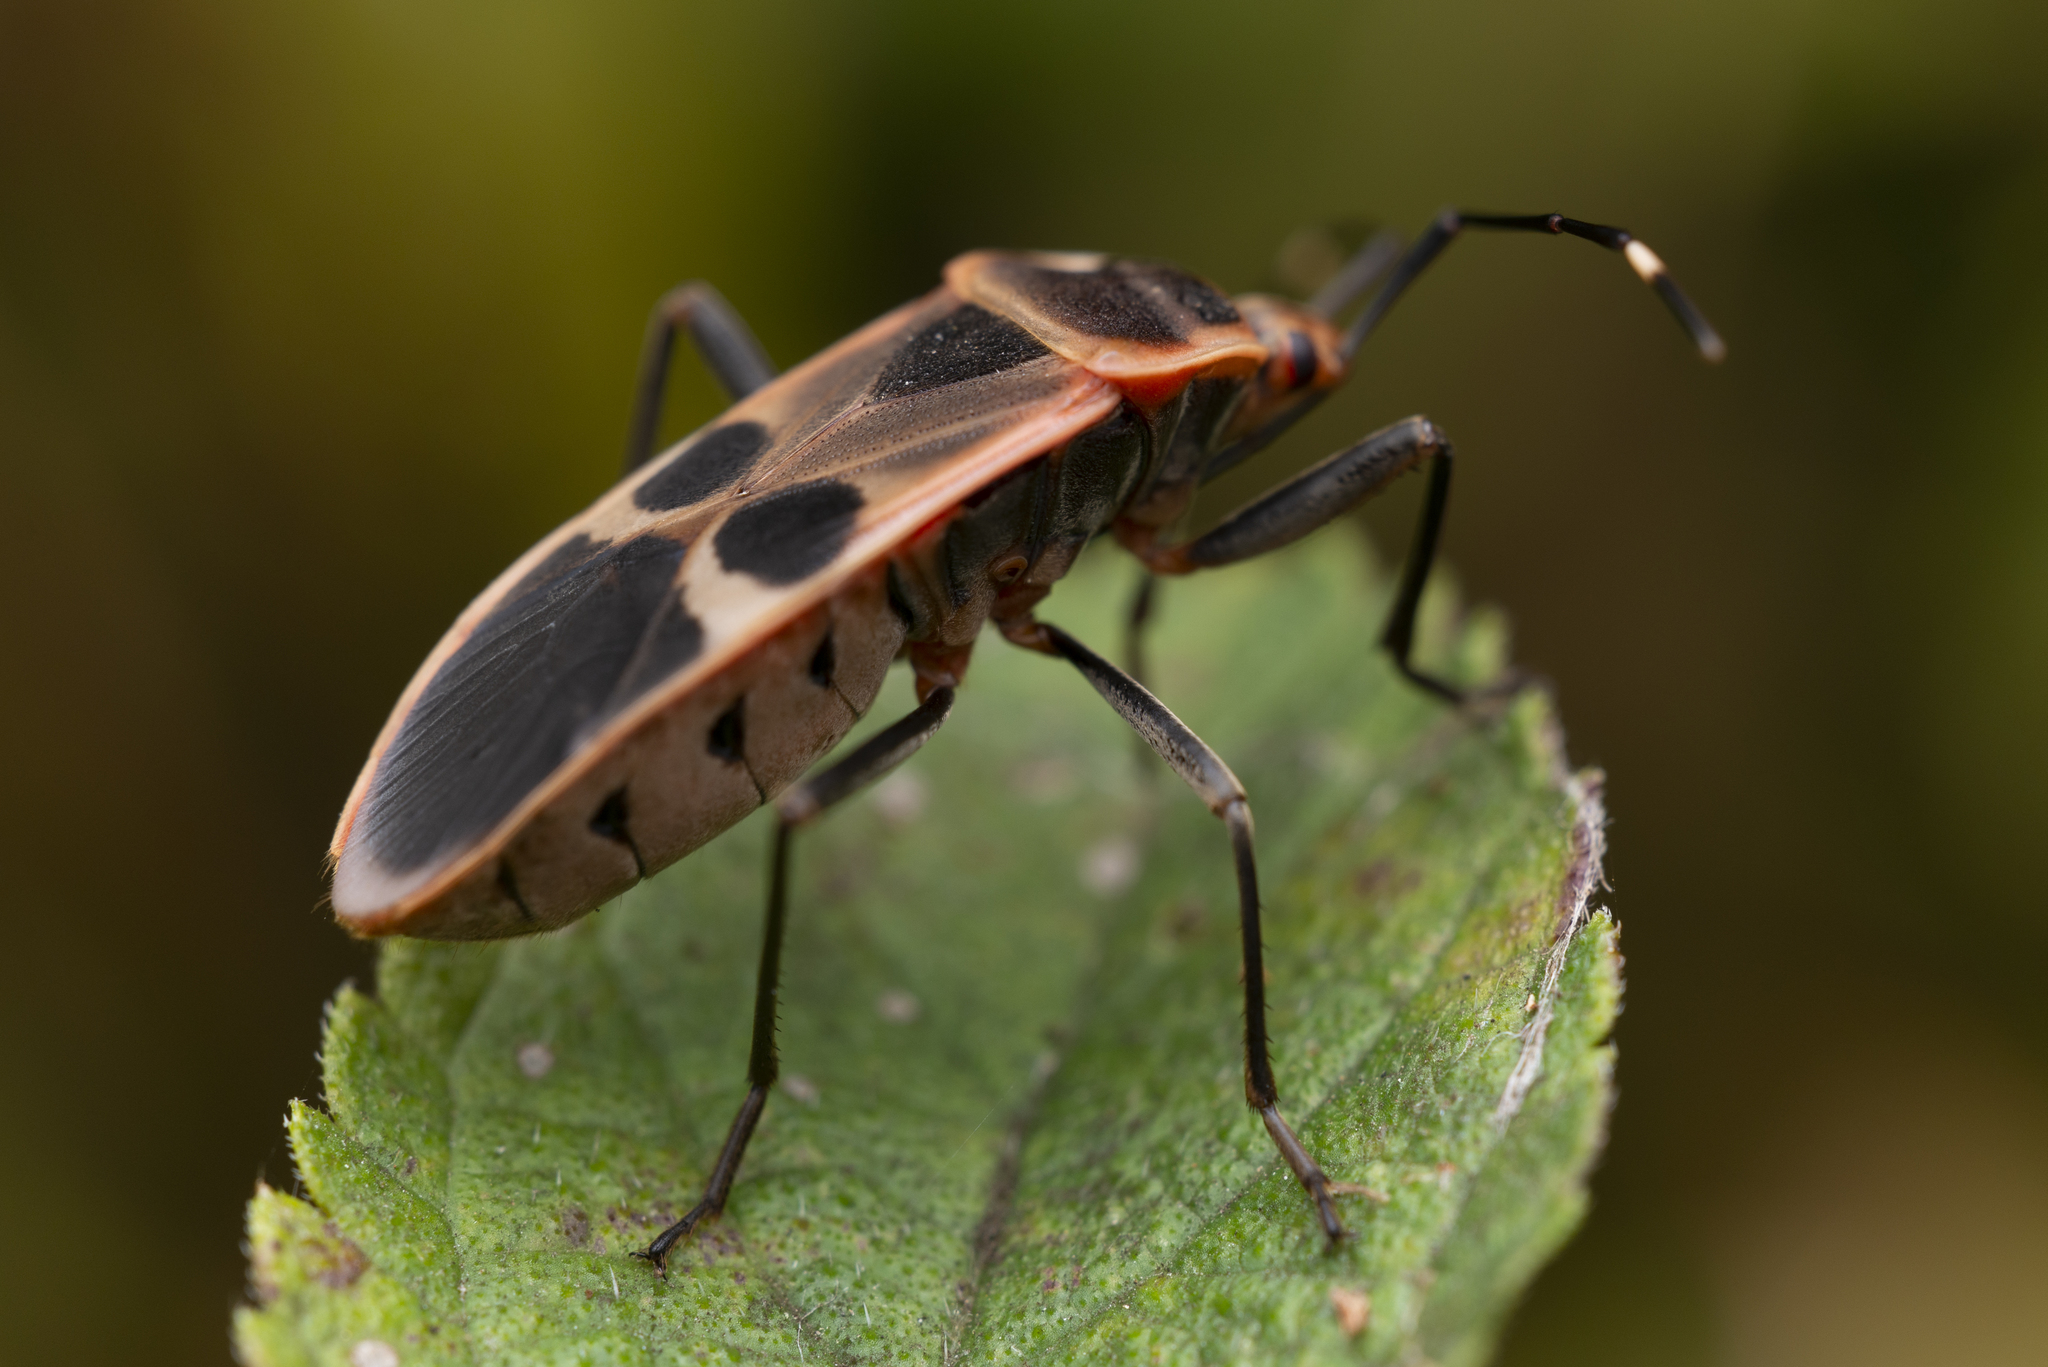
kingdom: Animalia
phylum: Arthropoda
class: Insecta
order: Hemiptera
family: Largidae
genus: Physopelta
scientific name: Physopelta gutta
